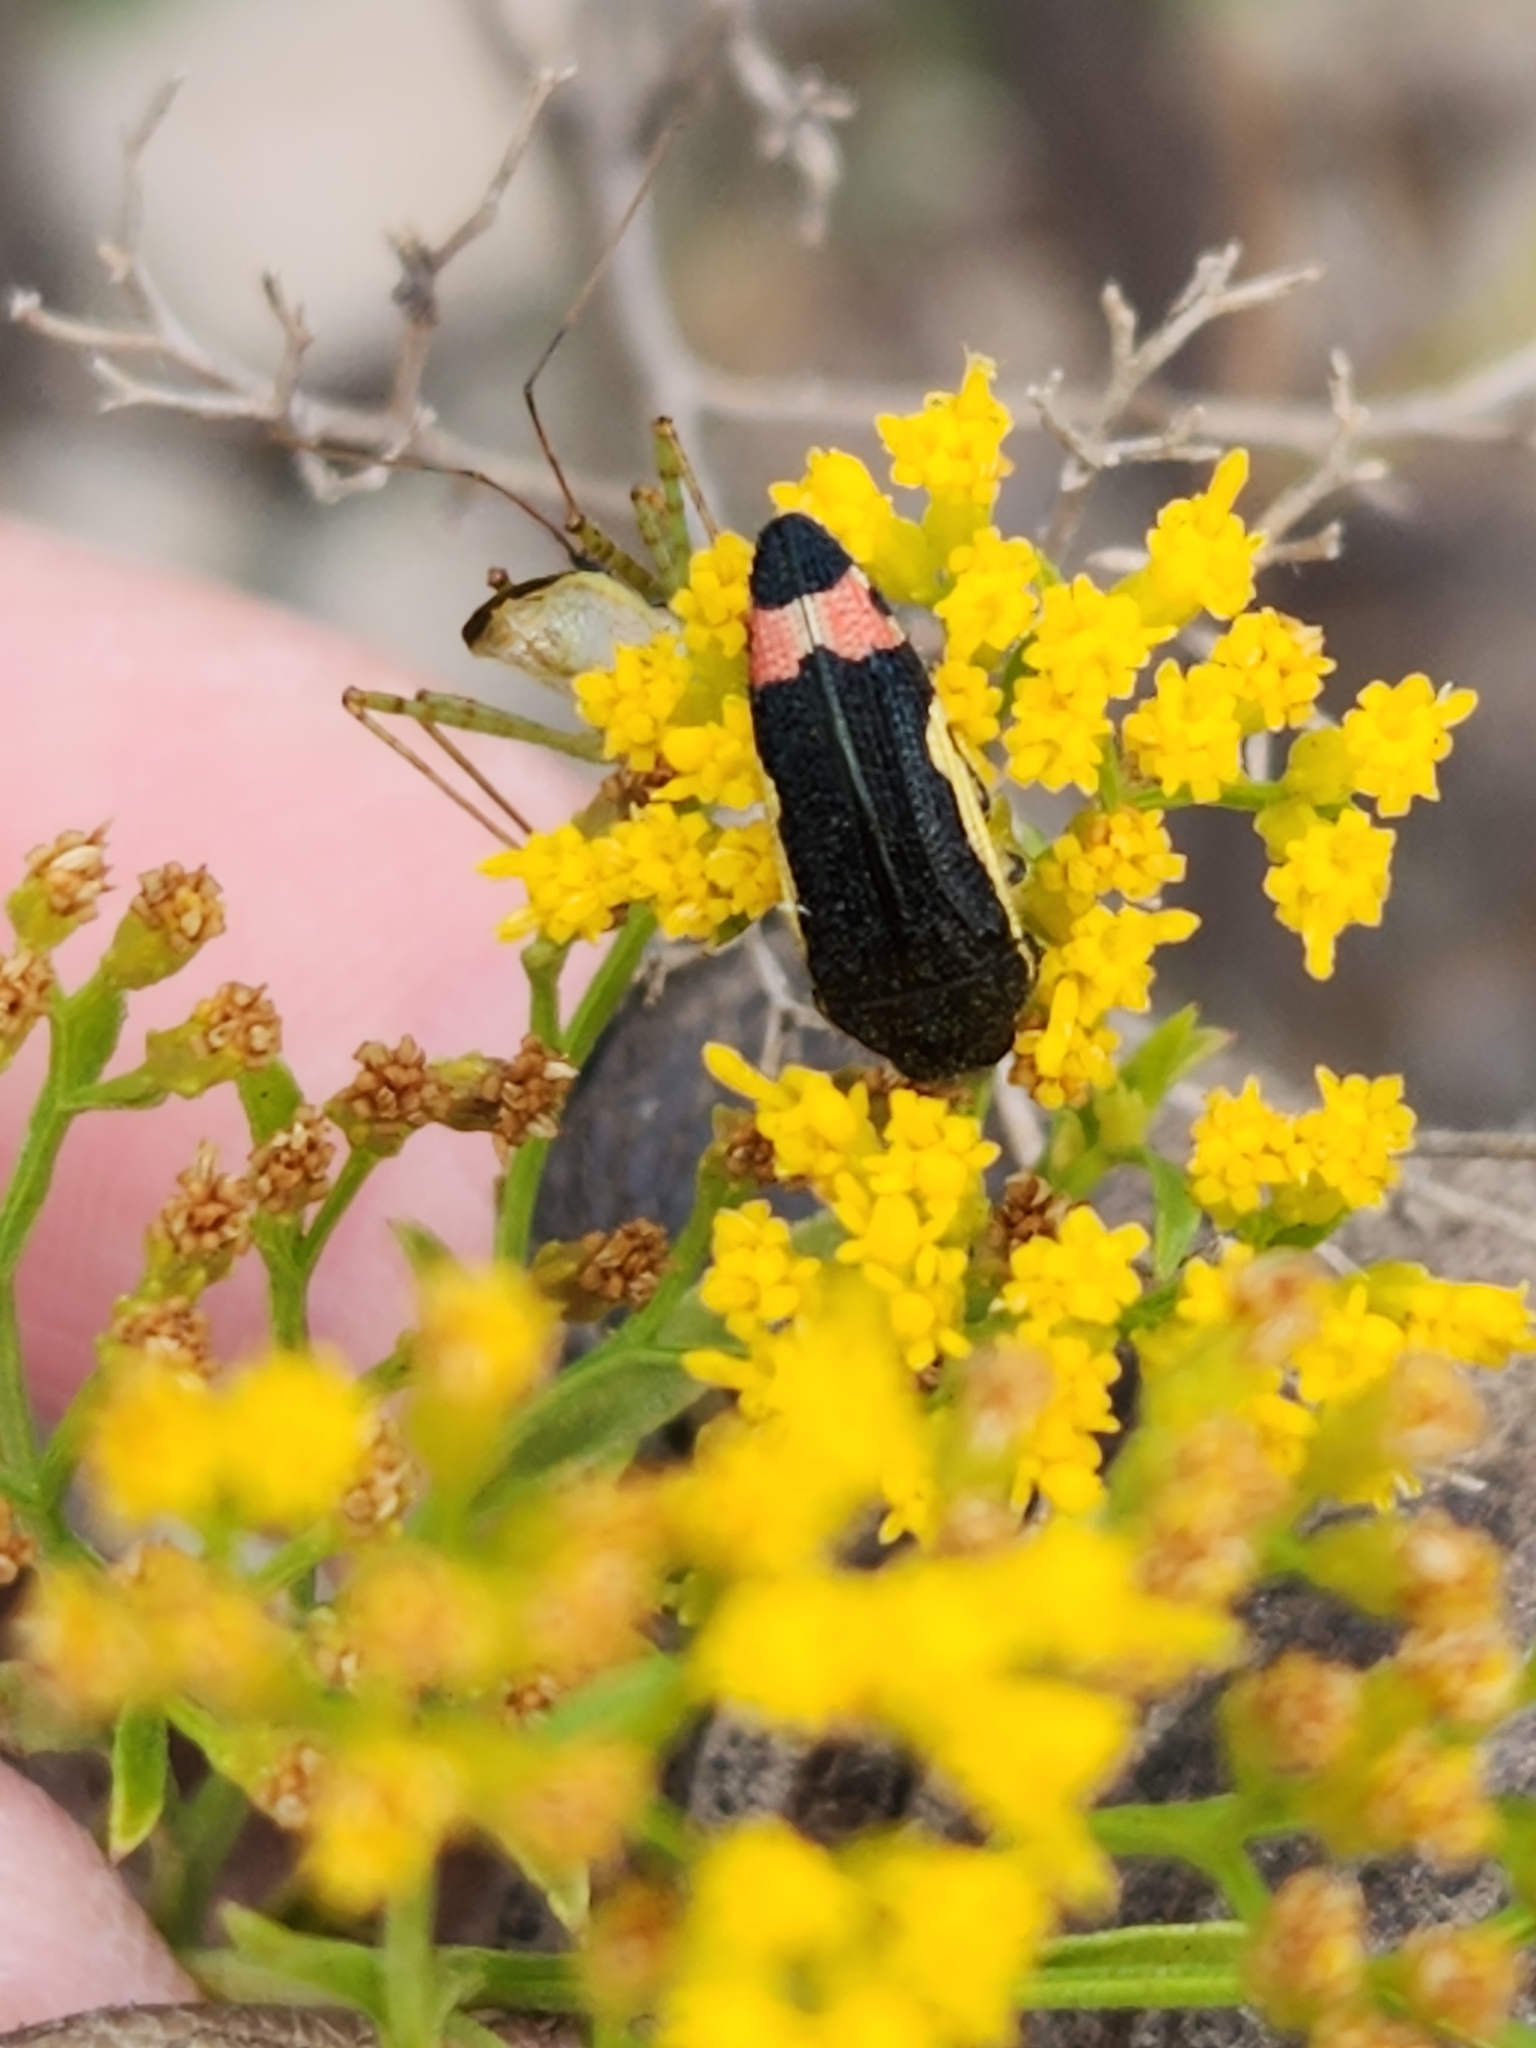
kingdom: Animalia
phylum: Arthropoda
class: Insecta
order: Coleoptera
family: Buprestidae
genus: Acmaeodera
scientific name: Acmaeodera flavomarginata
